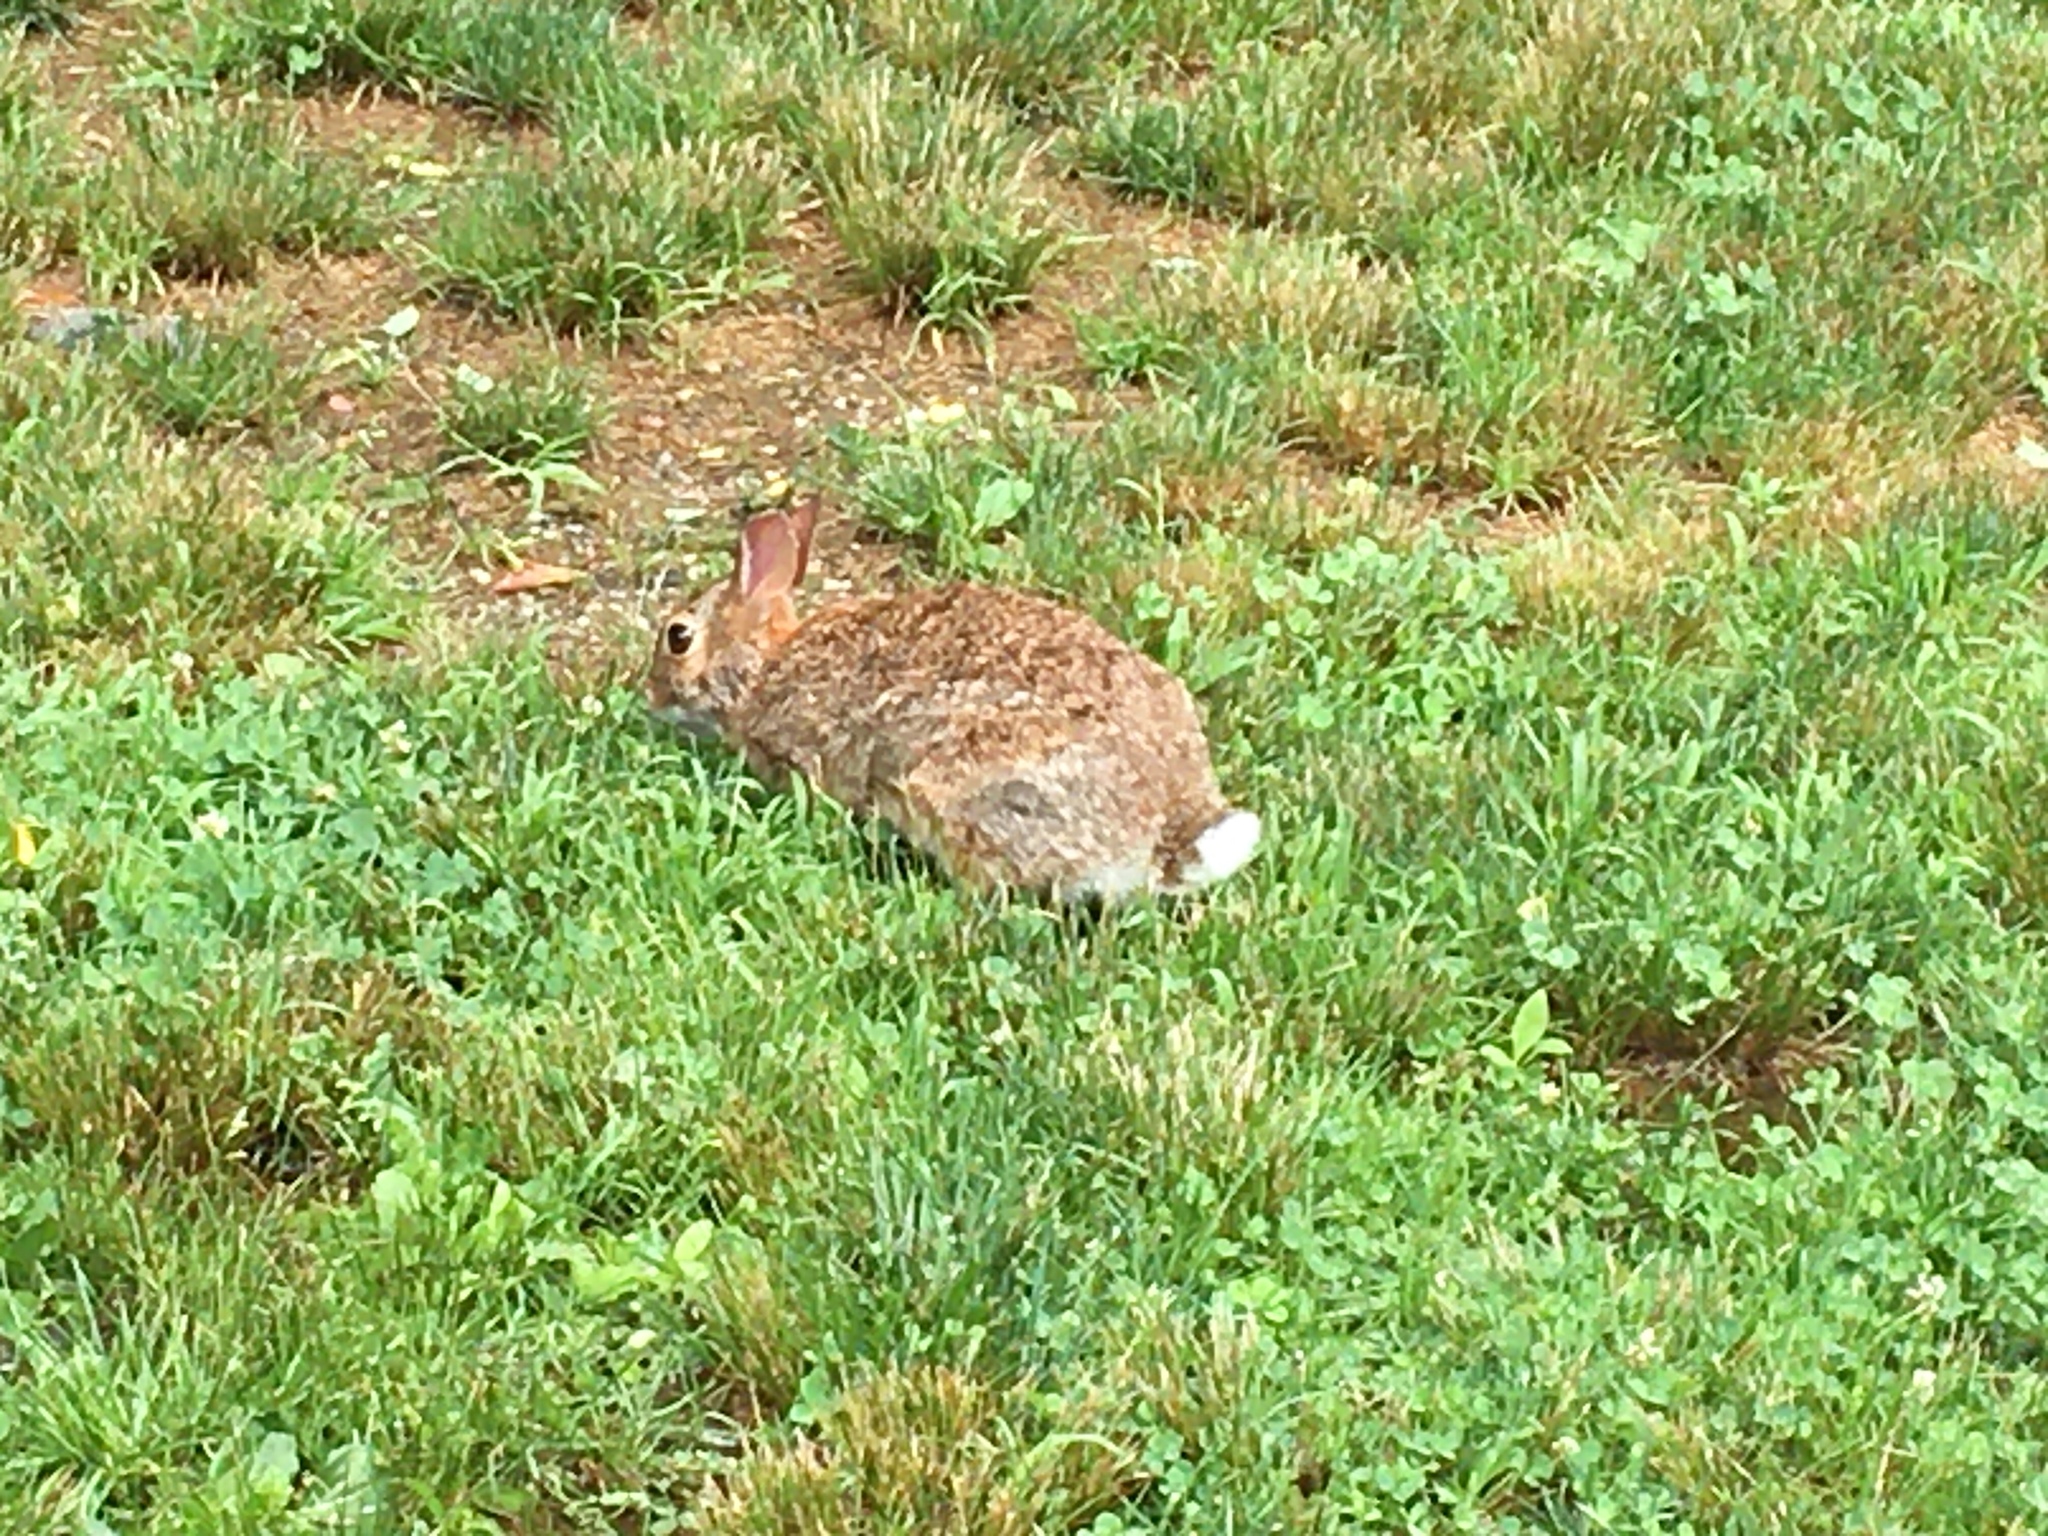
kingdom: Animalia
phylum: Chordata
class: Mammalia
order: Lagomorpha
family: Leporidae
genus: Sylvilagus
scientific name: Sylvilagus floridanus
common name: Eastern cottontail
